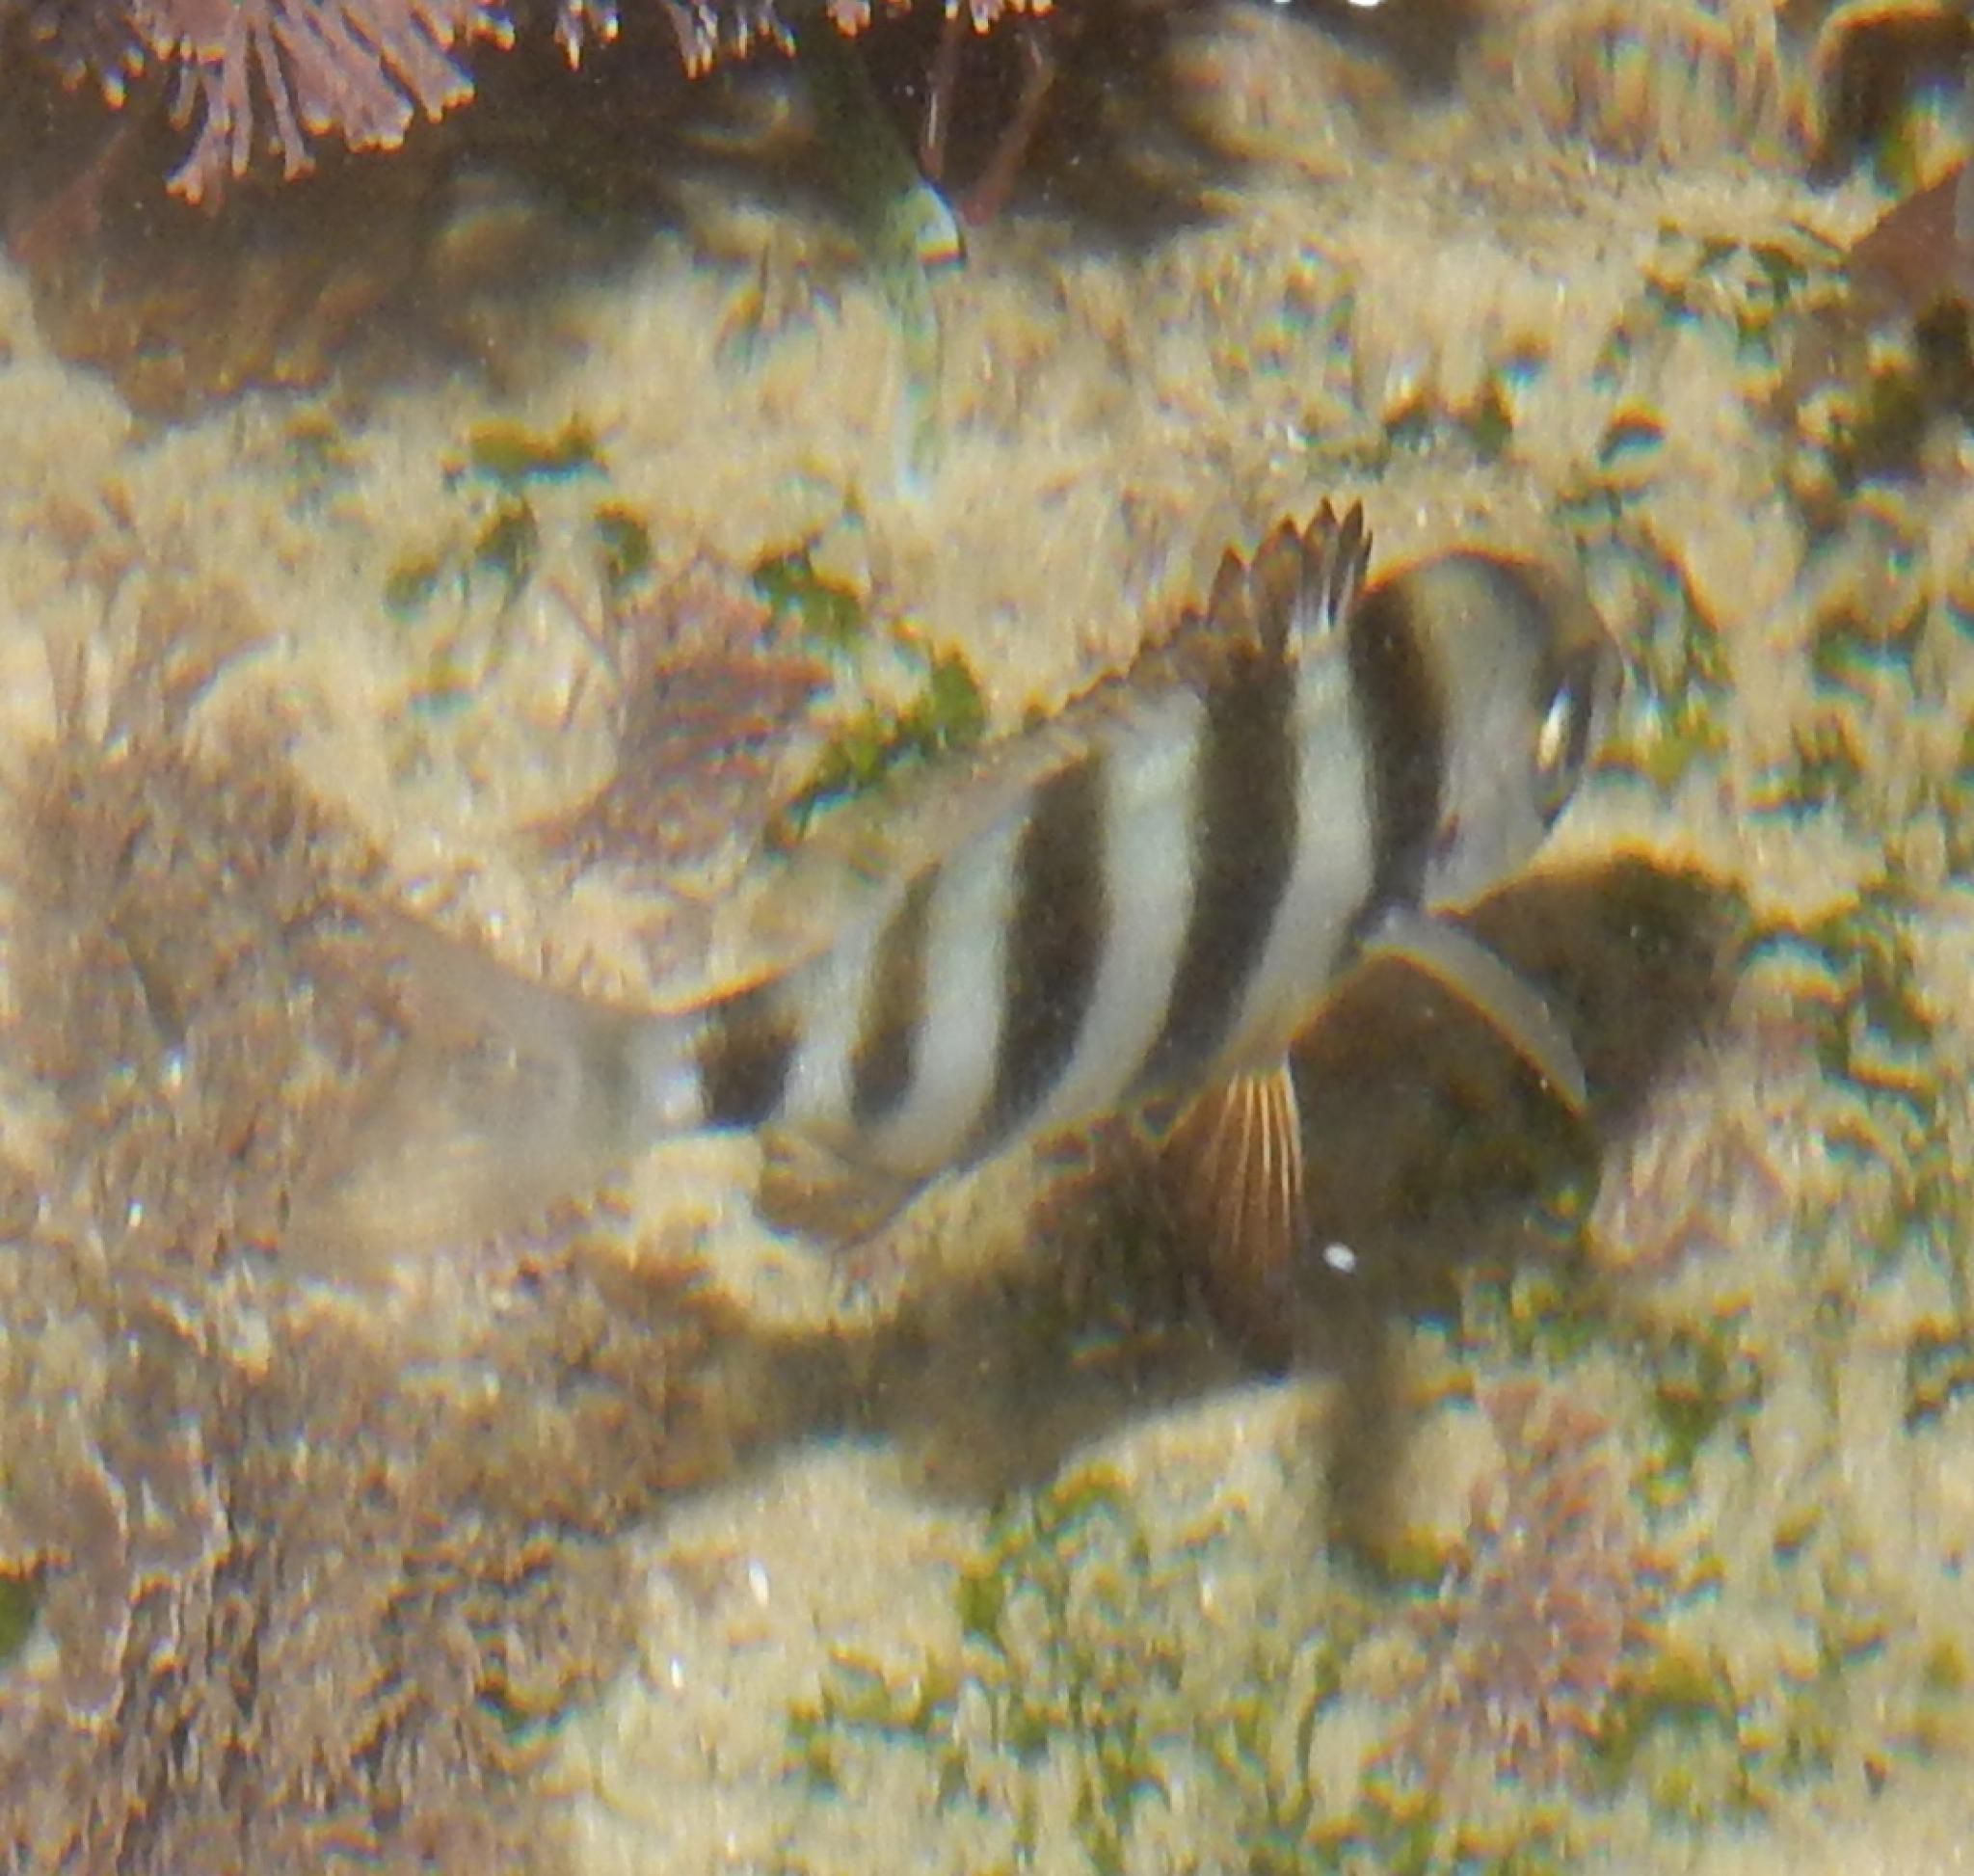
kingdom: Animalia
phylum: Chordata
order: Perciformes
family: Sparidae
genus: Diplodus
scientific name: Diplodus hottentotus
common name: Zebra
